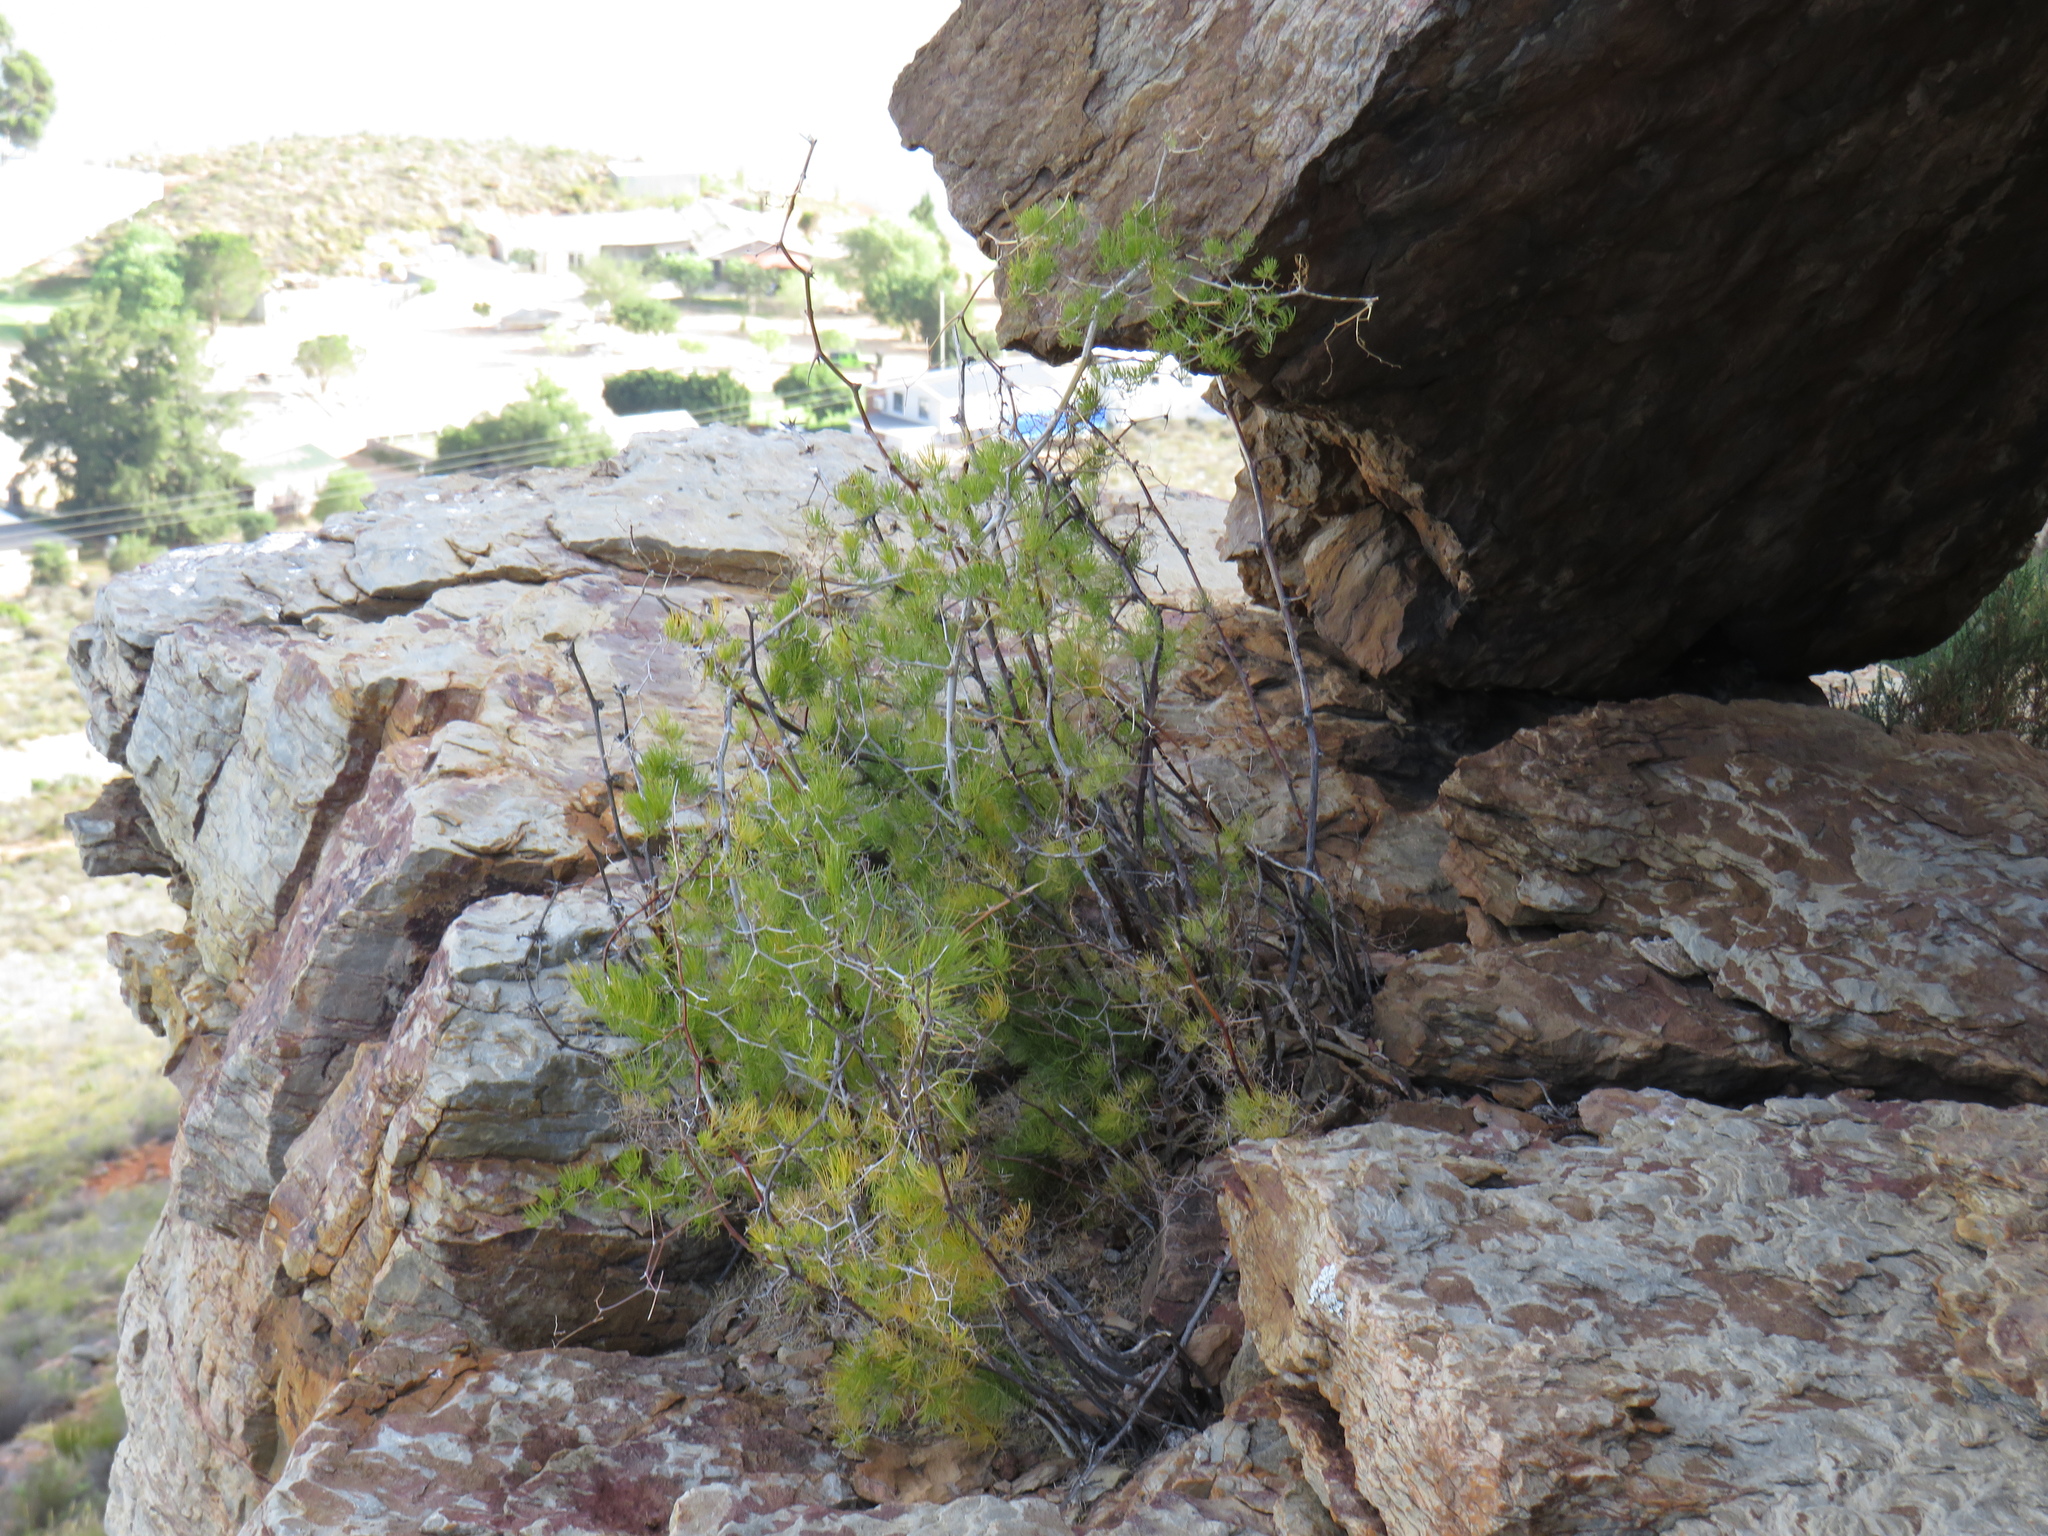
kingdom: Plantae
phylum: Tracheophyta
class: Liliopsida
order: Asparagales
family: Asparagaceae
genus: Asparagus
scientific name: Asparagus retrofractus
